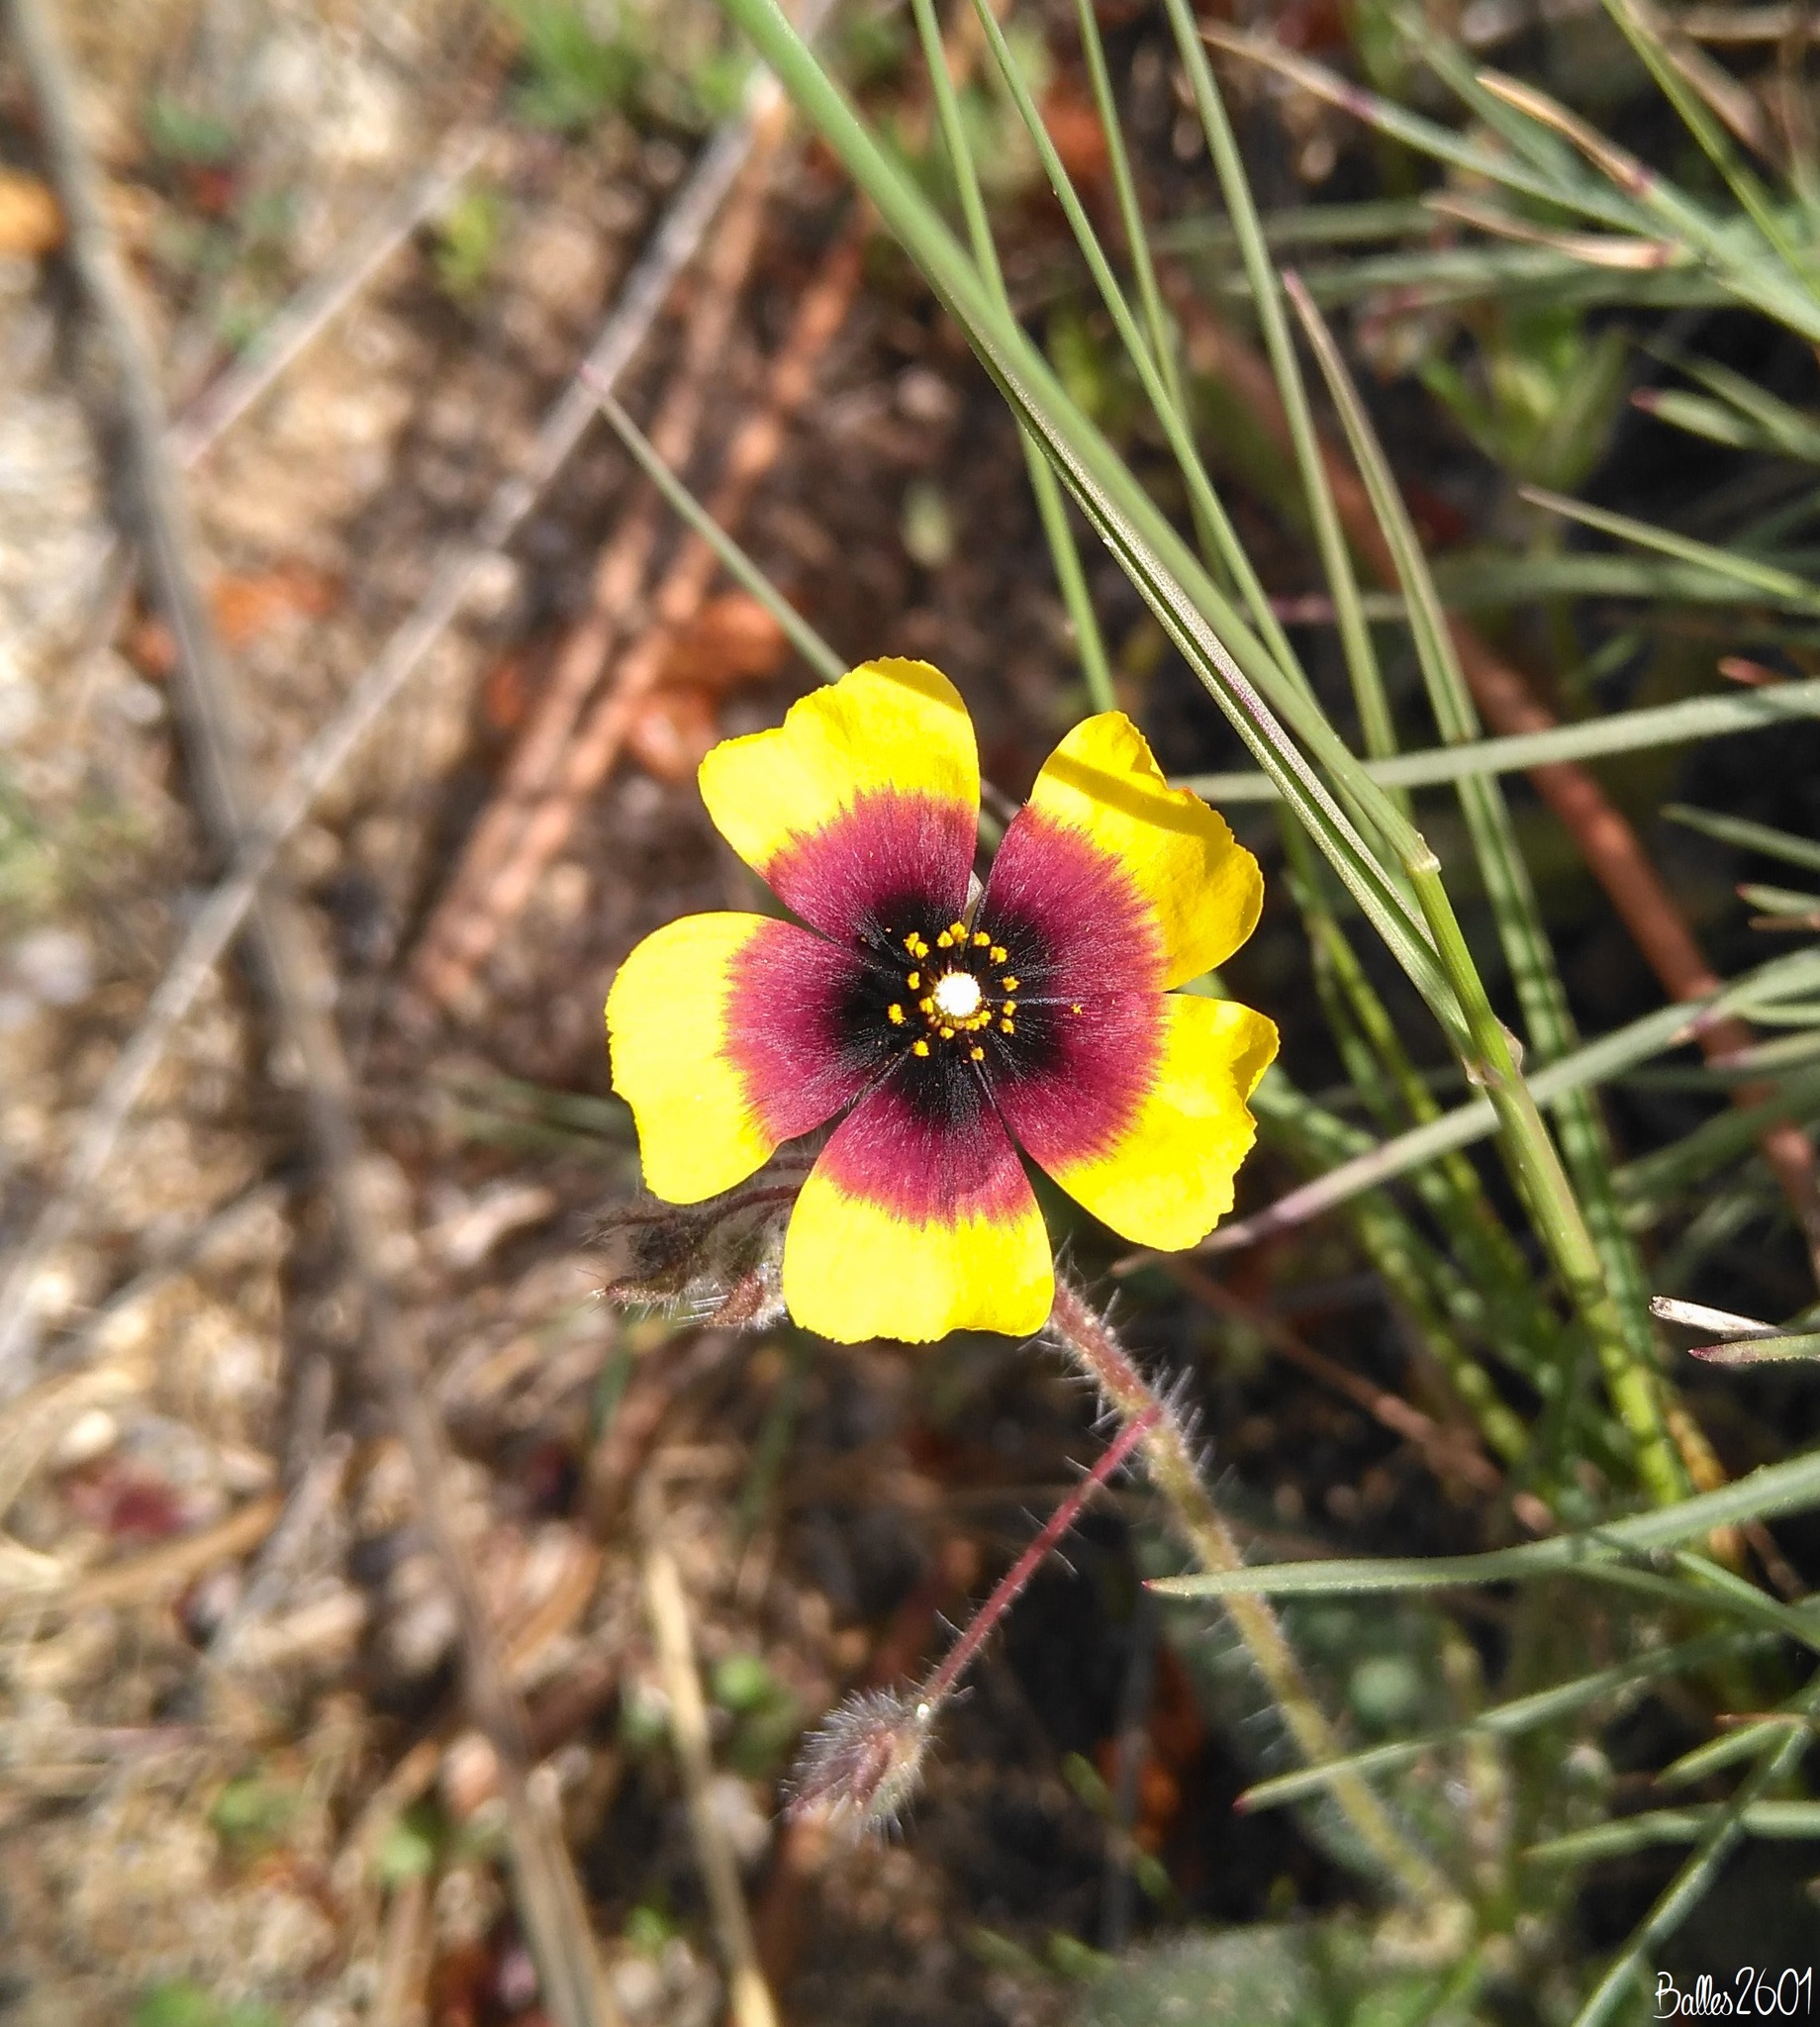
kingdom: Plantae
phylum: Tracheophyta
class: Magnoliopsida
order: Malvales
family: Cistaceae
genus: Tuberaria
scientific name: Tuberaria guttata
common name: Spotted rock-rose
